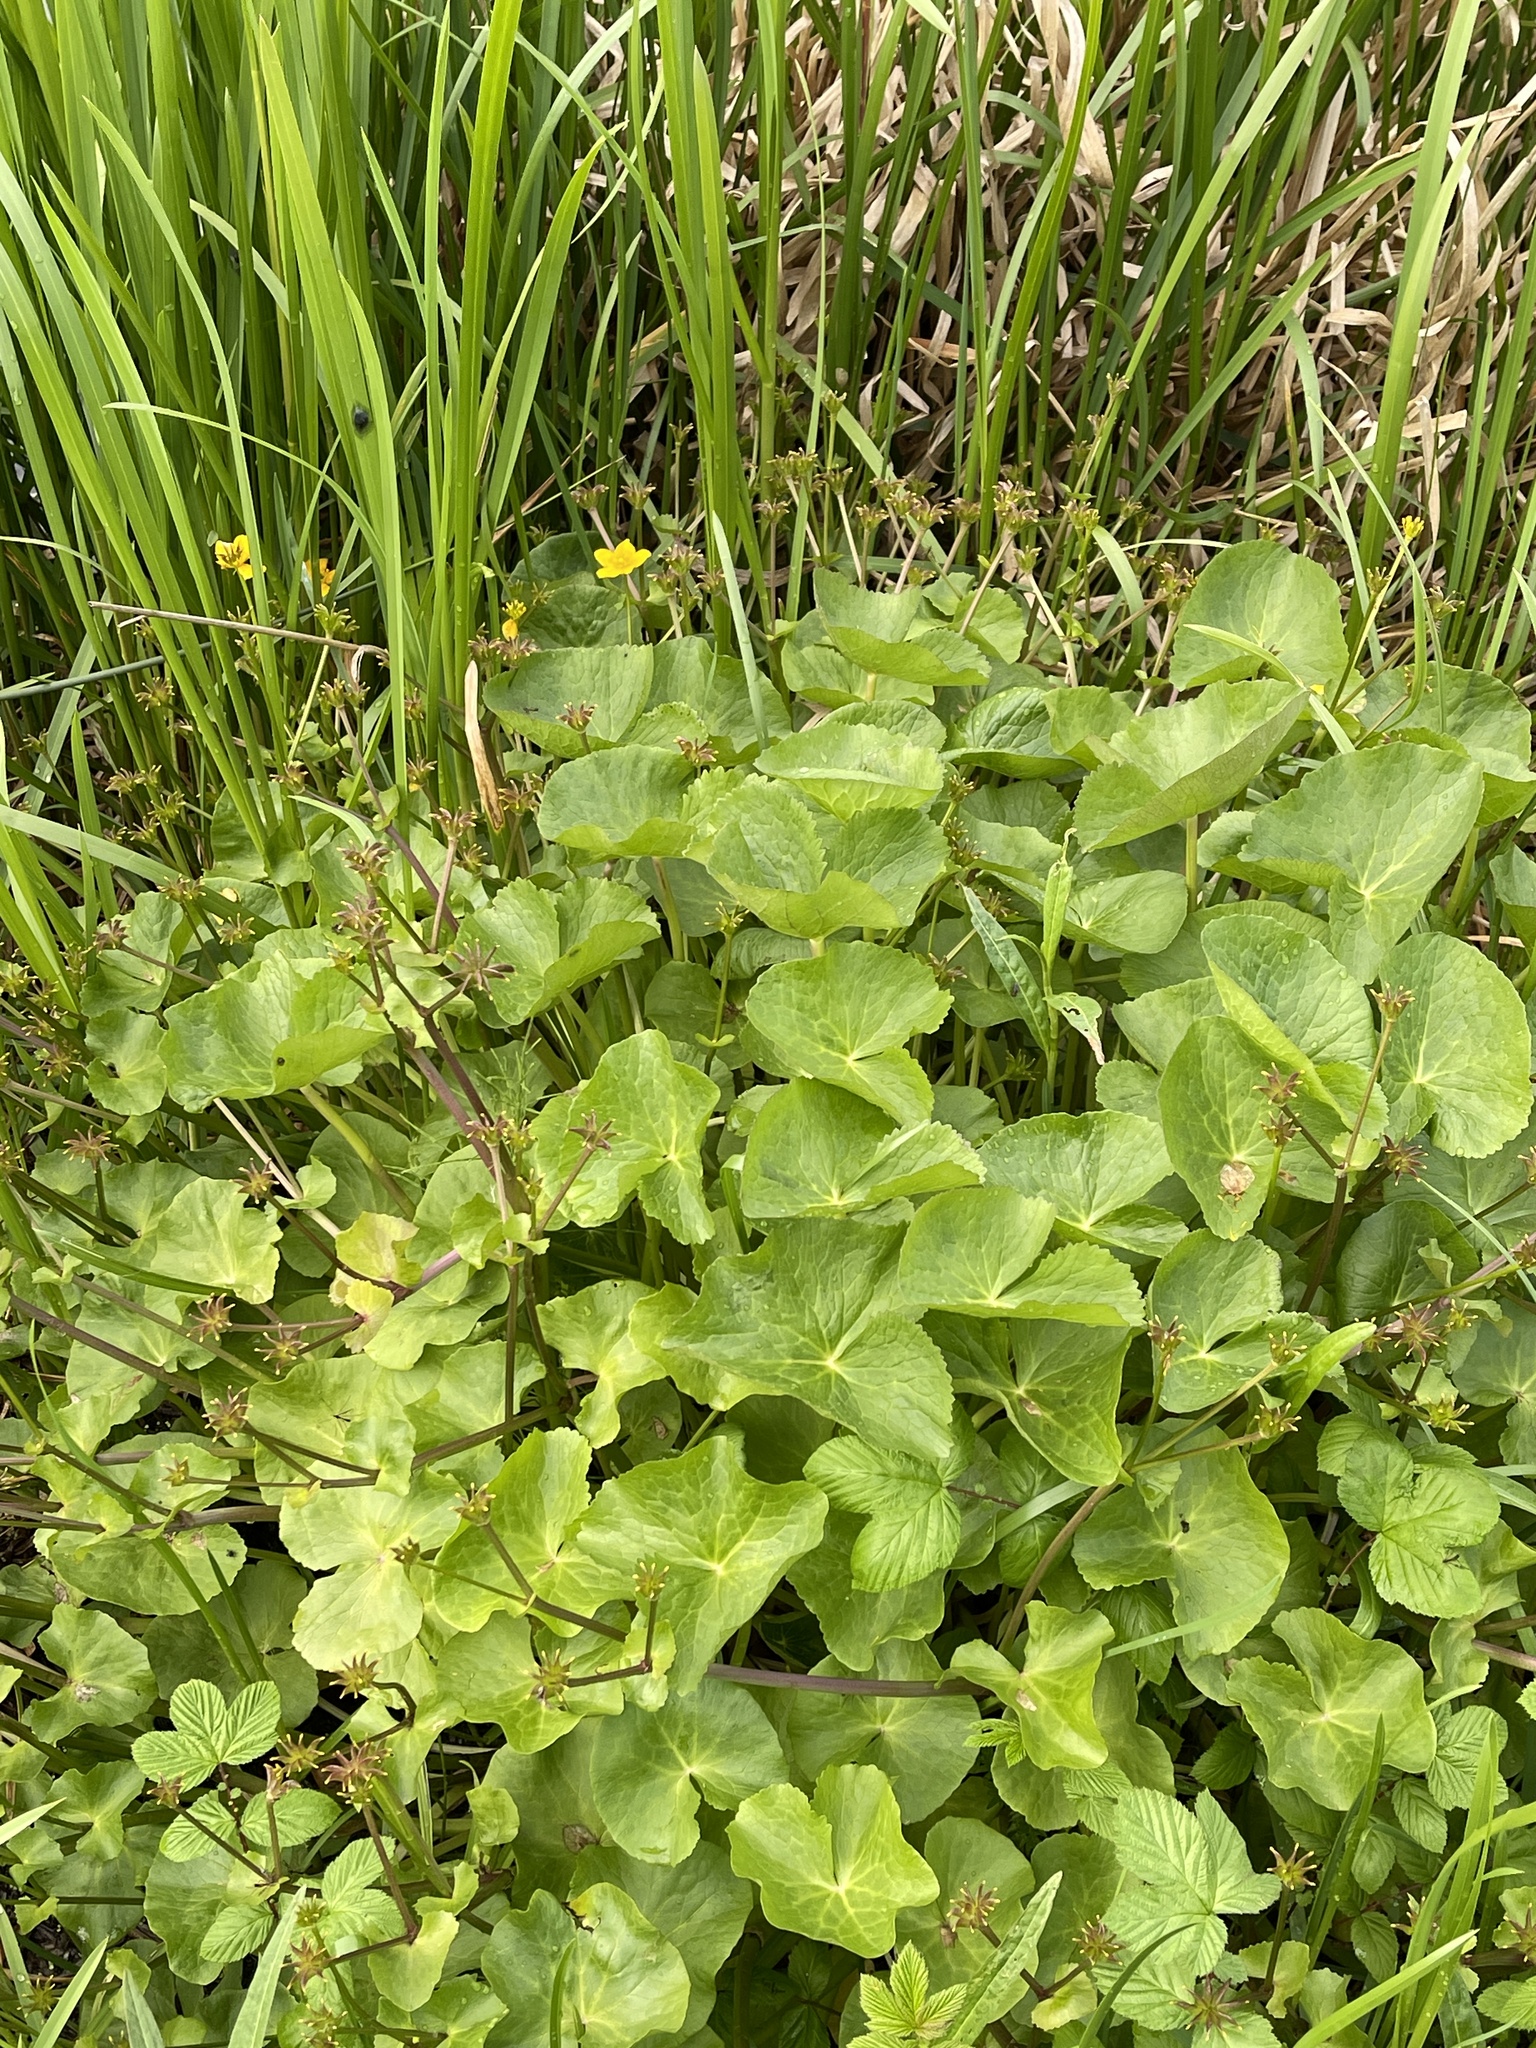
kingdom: Plantae
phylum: Tracheophyta
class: Magnoliopsida
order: Ranunculales
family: Ranunculaceae
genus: Caltha
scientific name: Caltha palustris
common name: Marsh marigold
